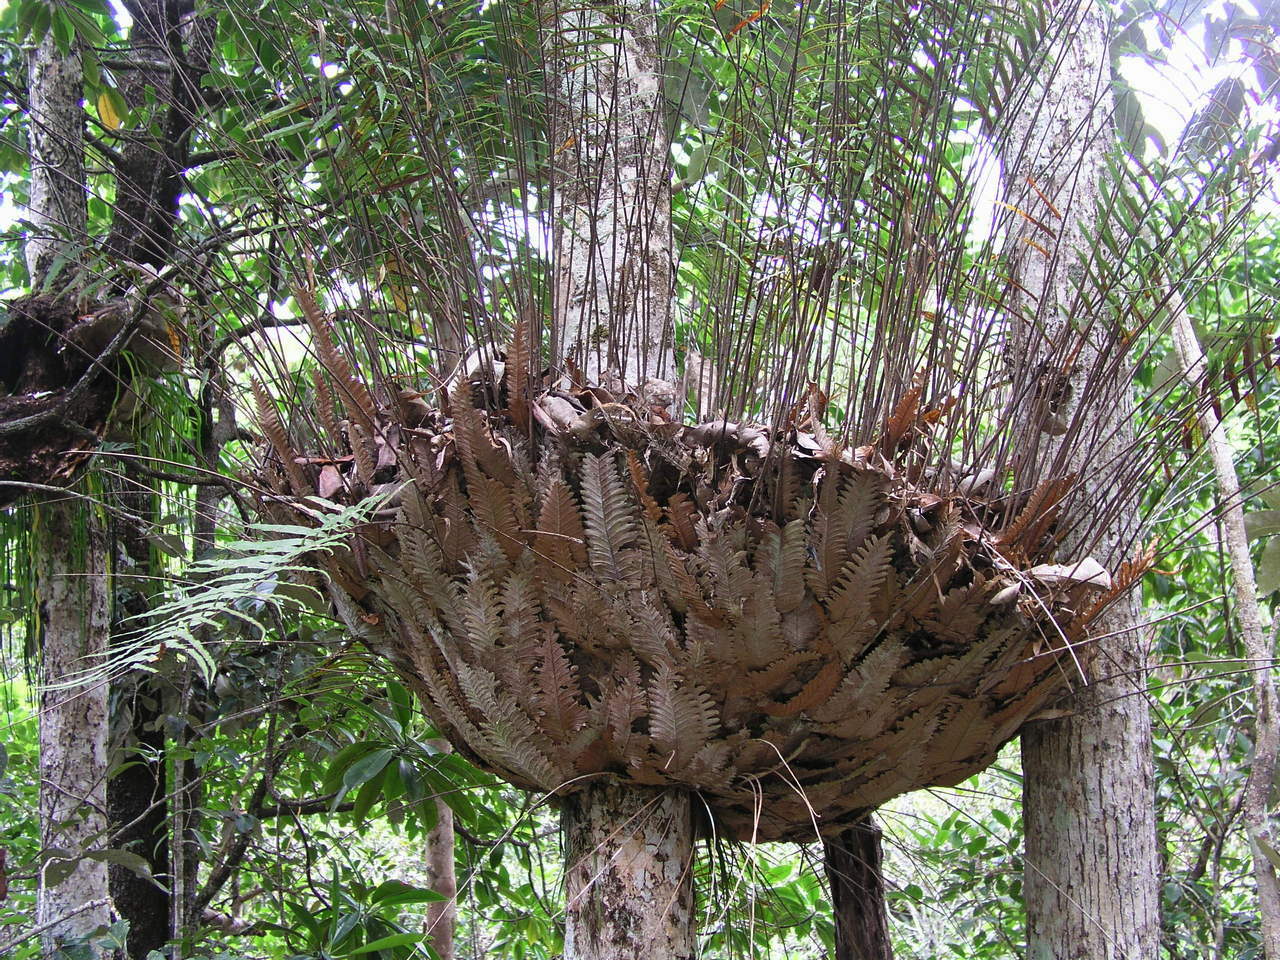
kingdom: Plantae
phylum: Tracheophyta
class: Polypodiopsida
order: Polypodiales
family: Polypodiaceae
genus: Drynaria
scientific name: Drynaria rigidula
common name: Basket fern
